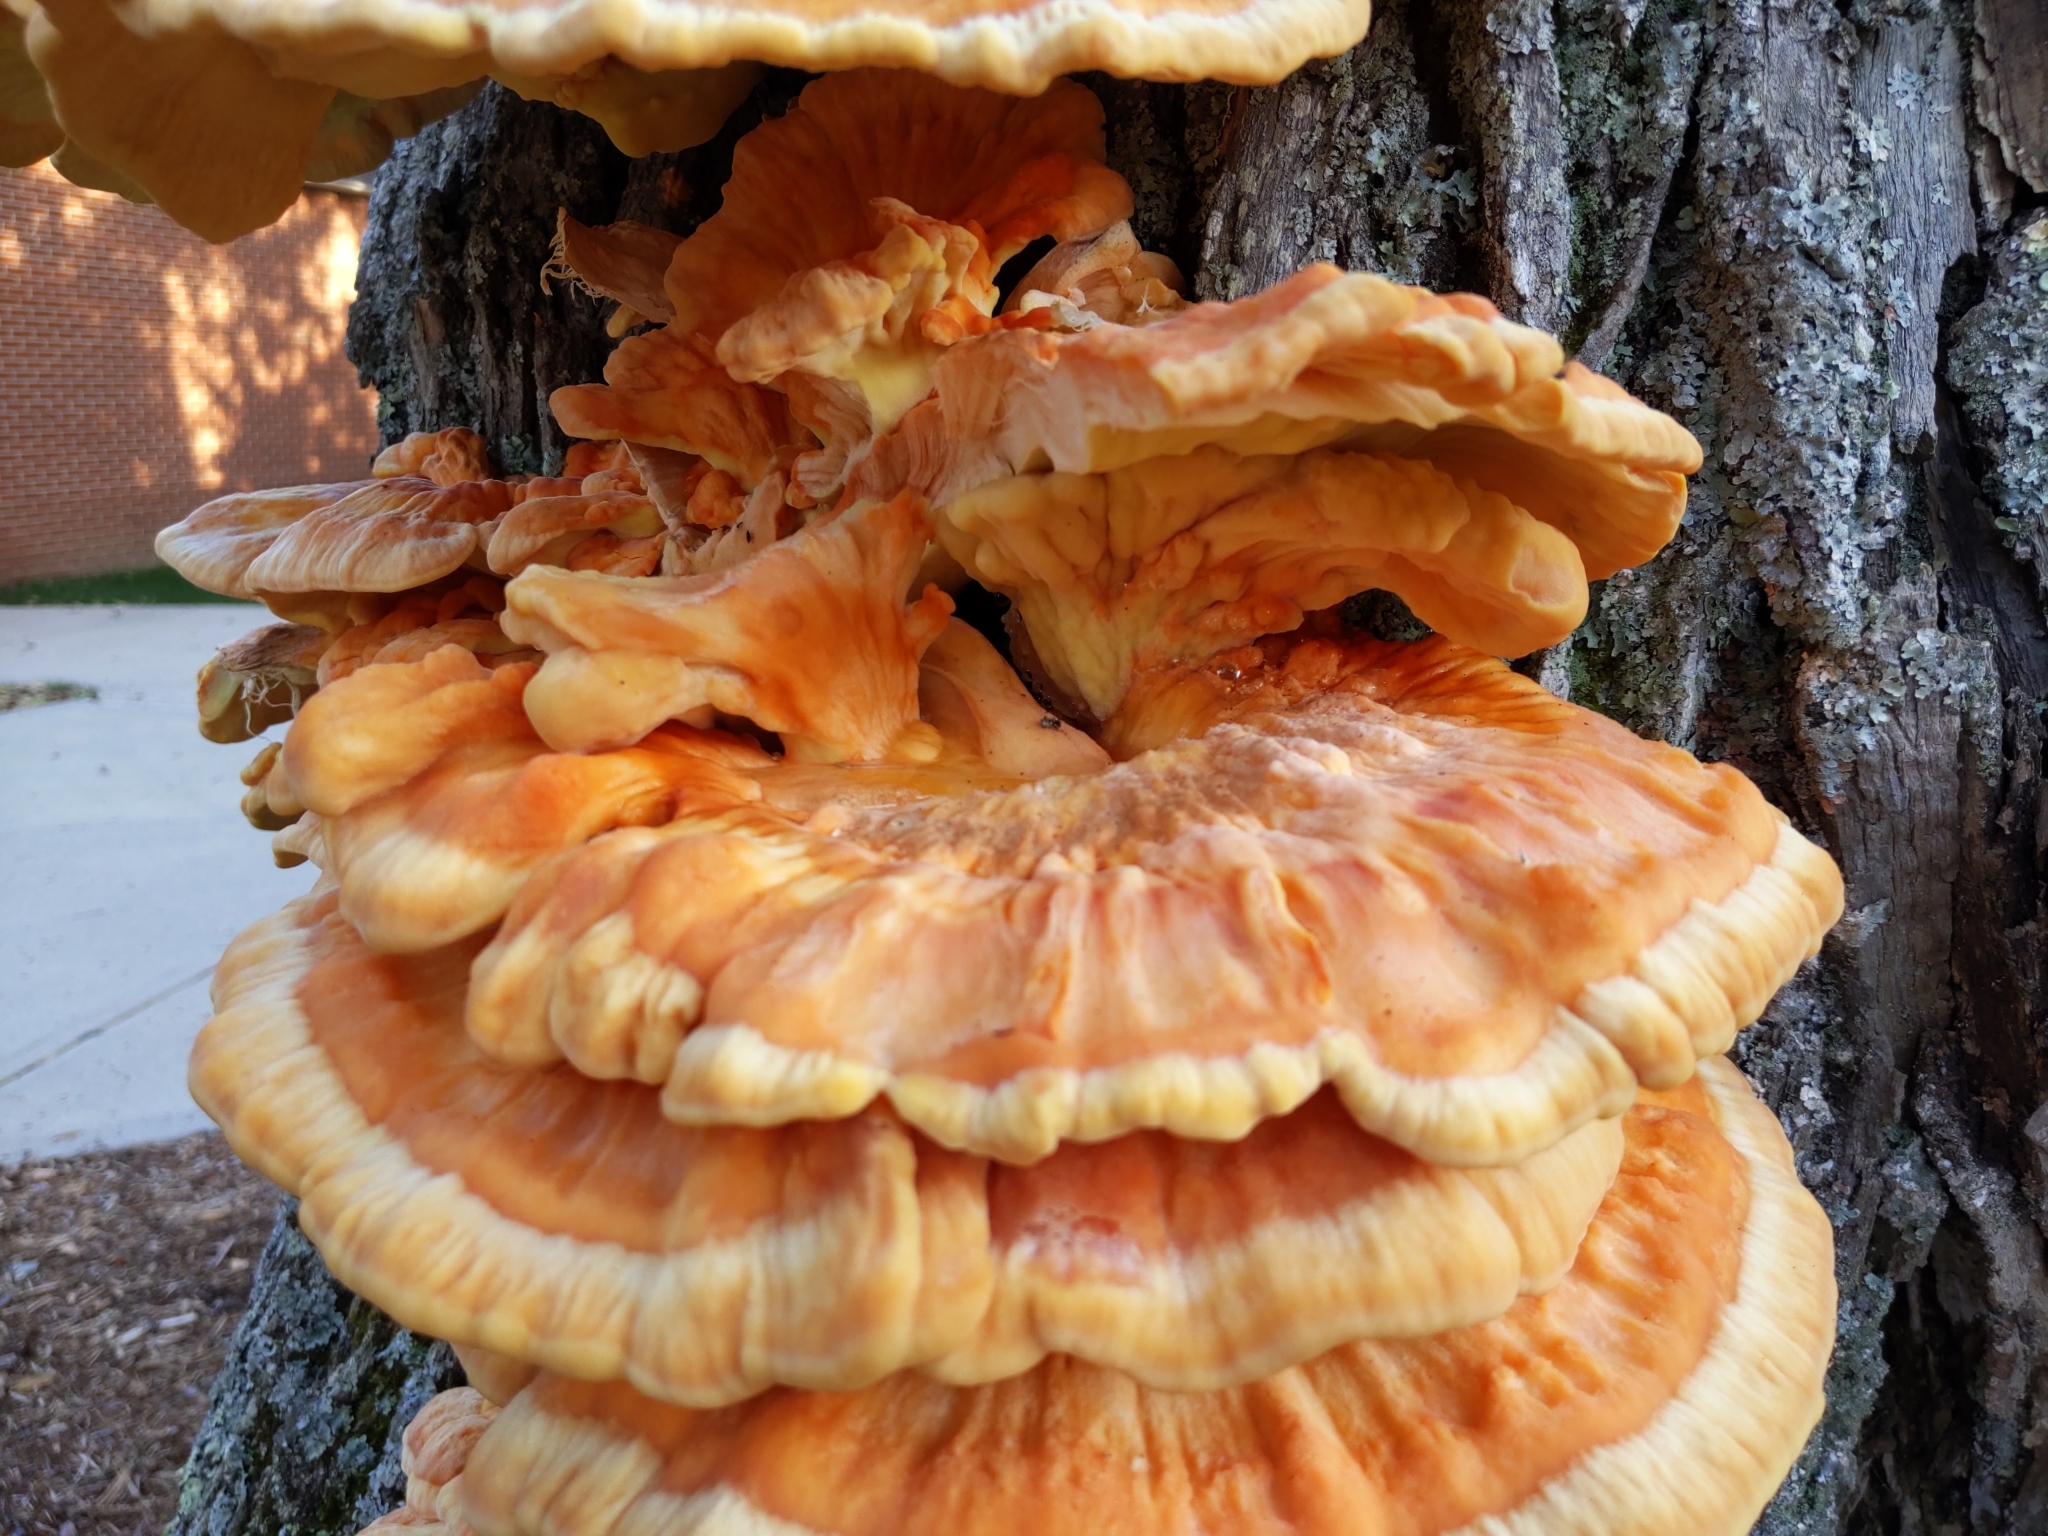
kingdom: Fungi
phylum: Basidiomycota
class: Agaricomycetes
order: Polyporales
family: Laetiporaceae
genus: Laetiporus
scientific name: Laetiporus sulphureus
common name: Chicken of the woods
